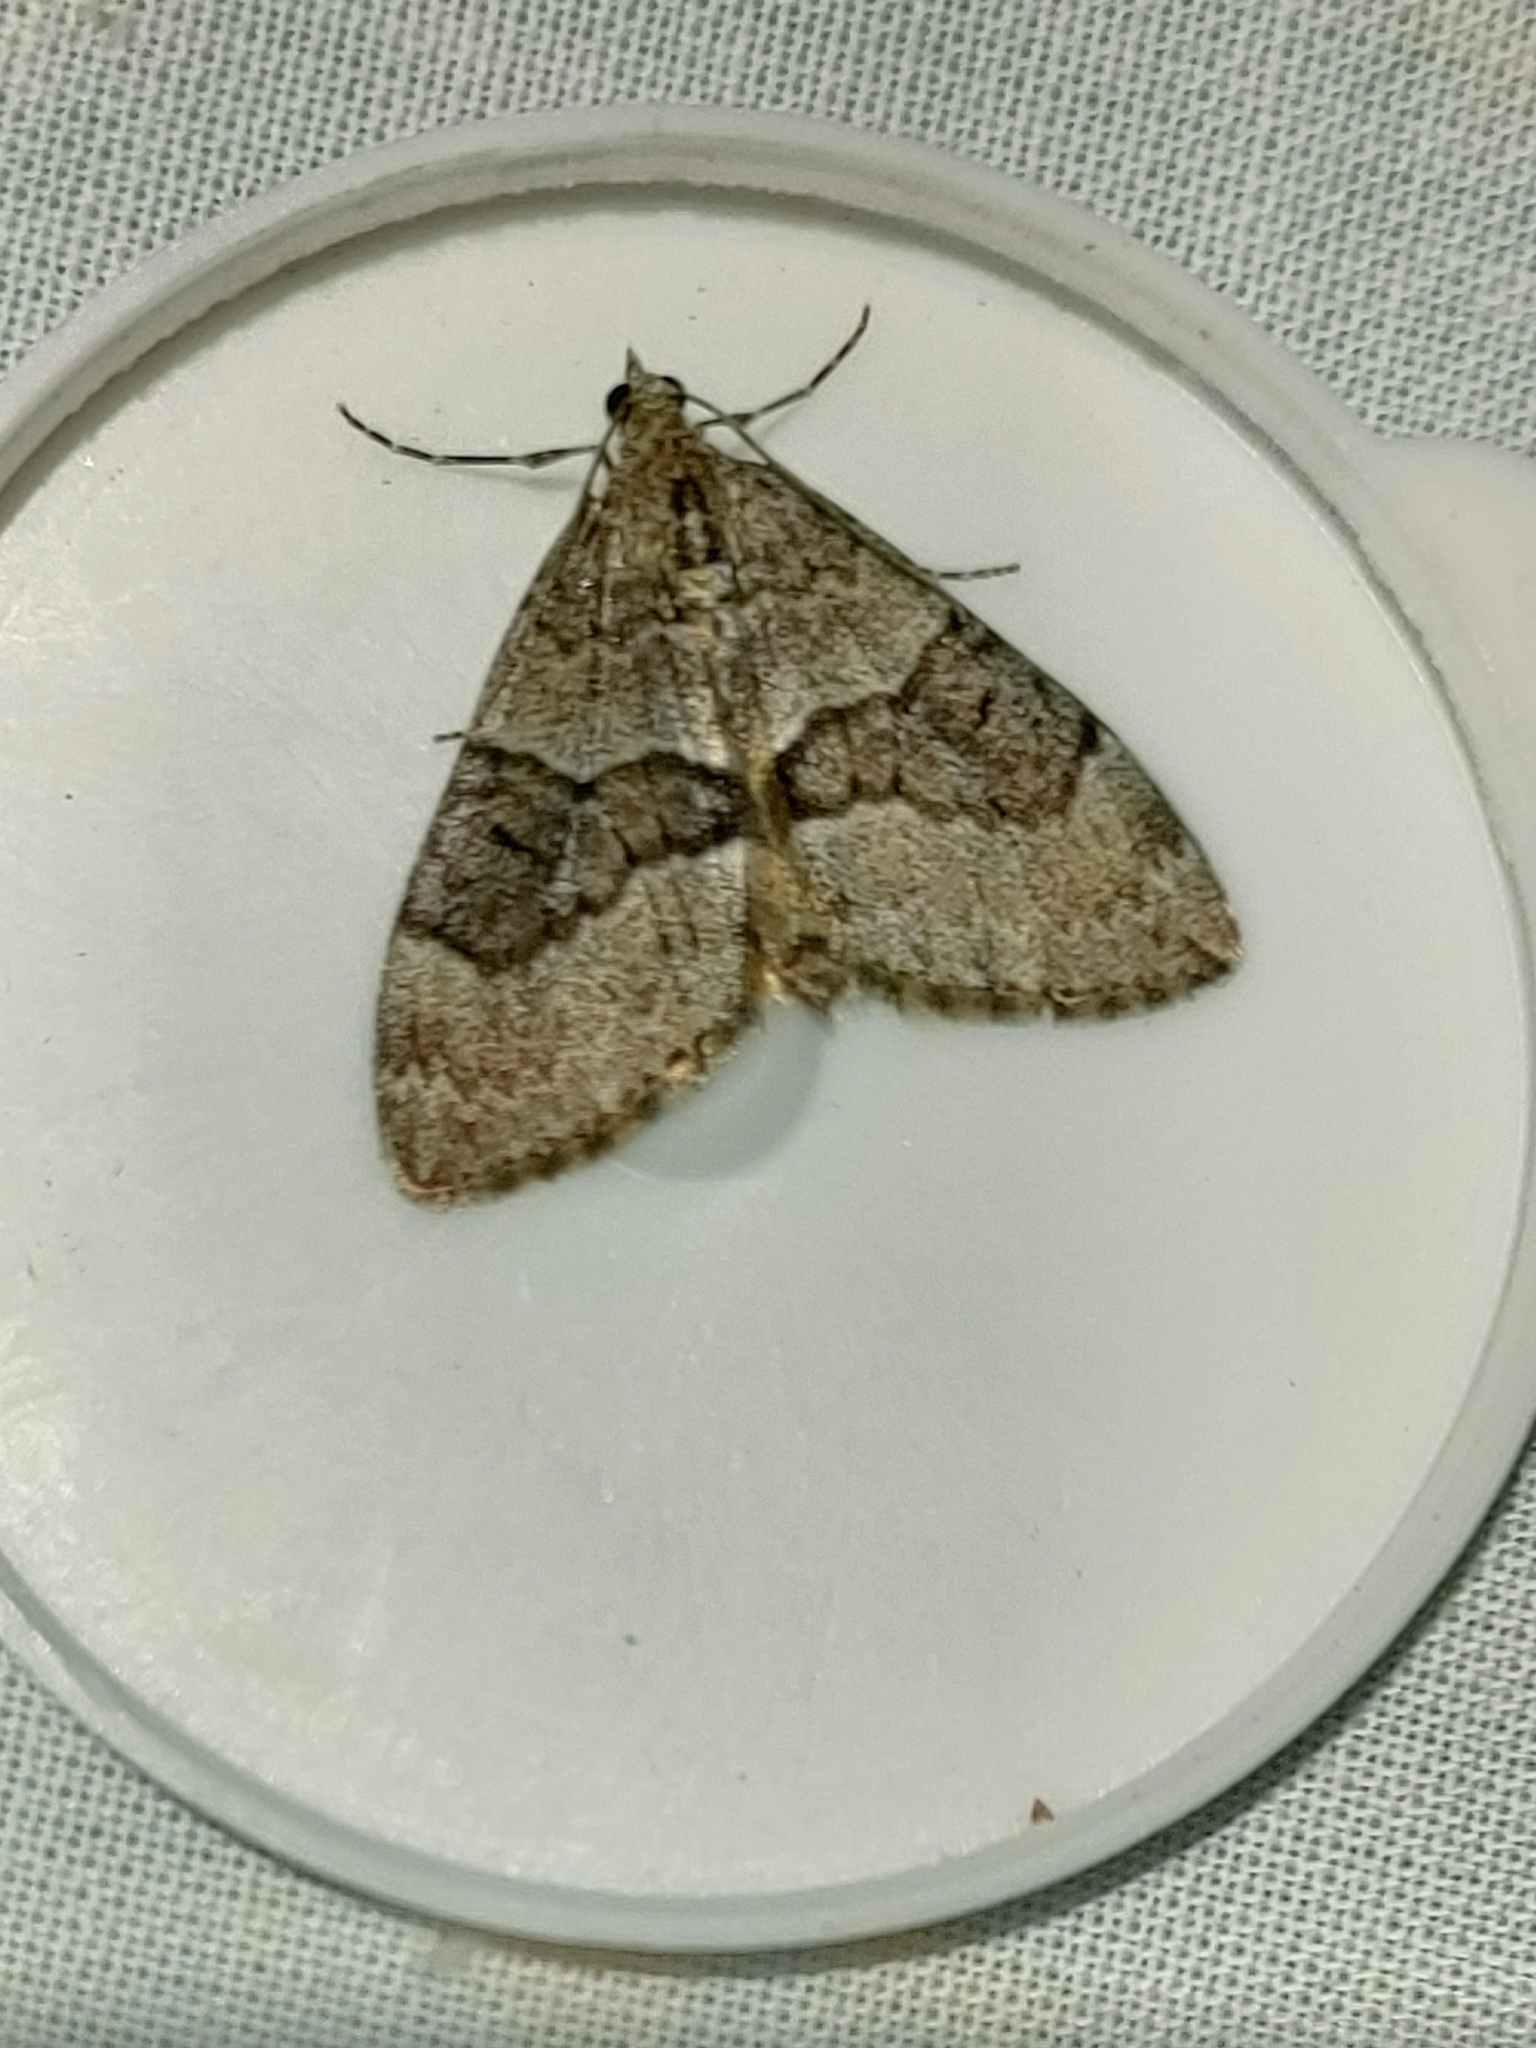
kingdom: Animalia
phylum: Arthropoda
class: Insecta
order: Lepidoptera
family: Geometridae
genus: Thera
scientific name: Thera obeliscata
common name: Grey pine carpet
